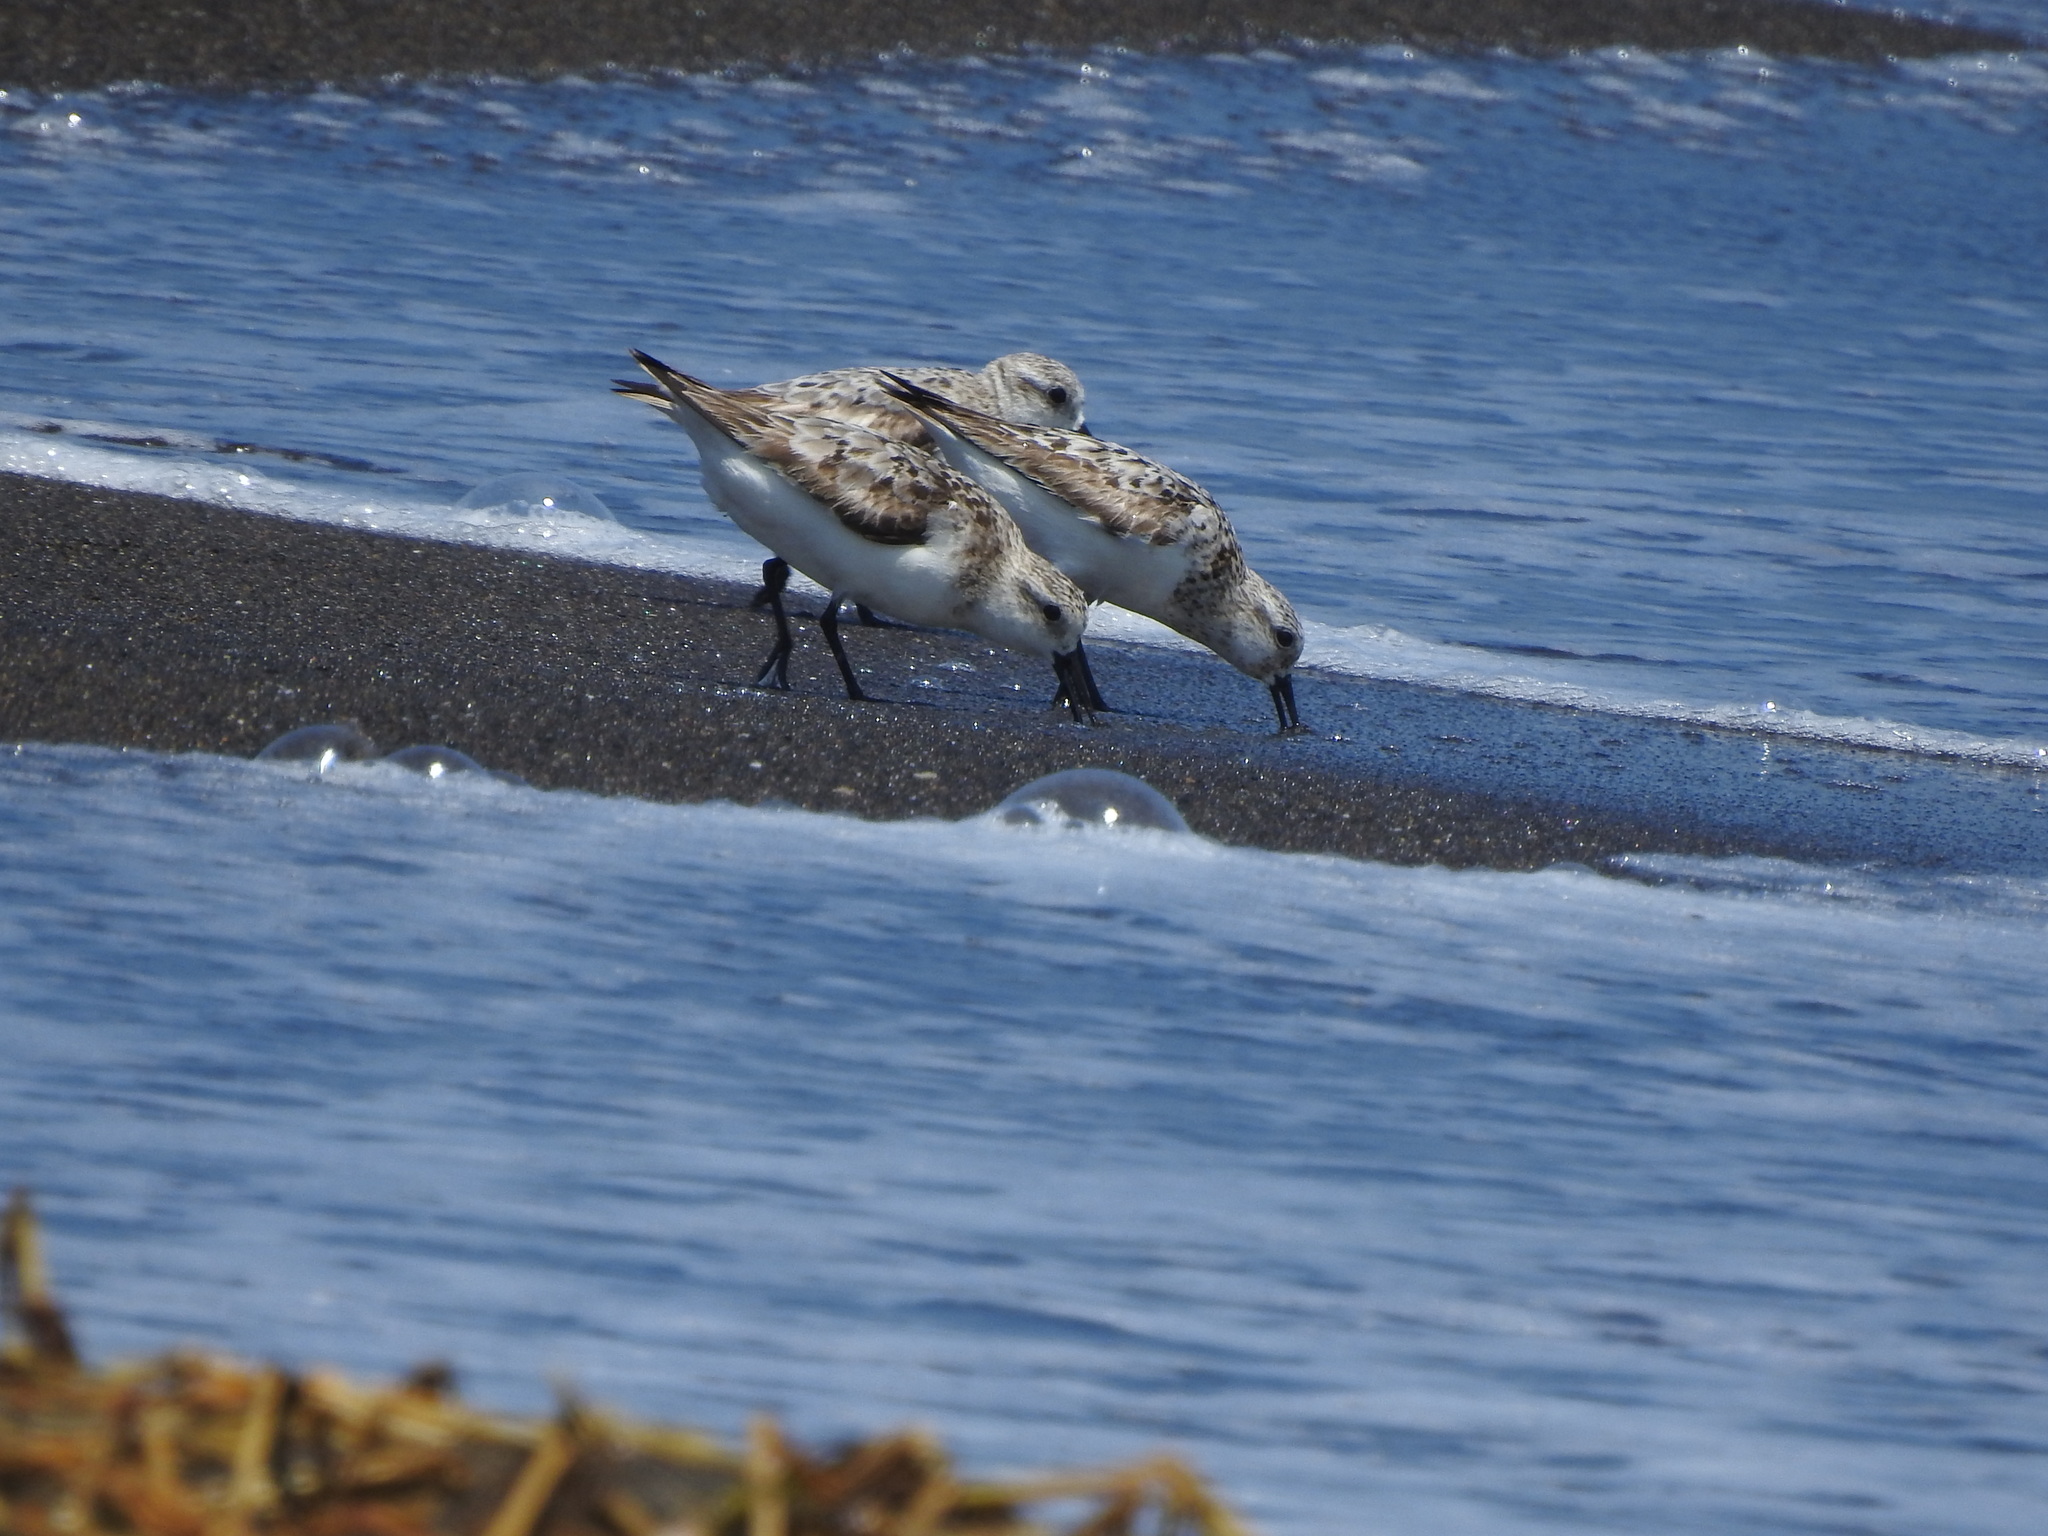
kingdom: Animalia
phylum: Chordata
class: Aves
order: Charadriiformes
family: Scolopacidae
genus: Calidris
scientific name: Calidris alba
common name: Sanderling
